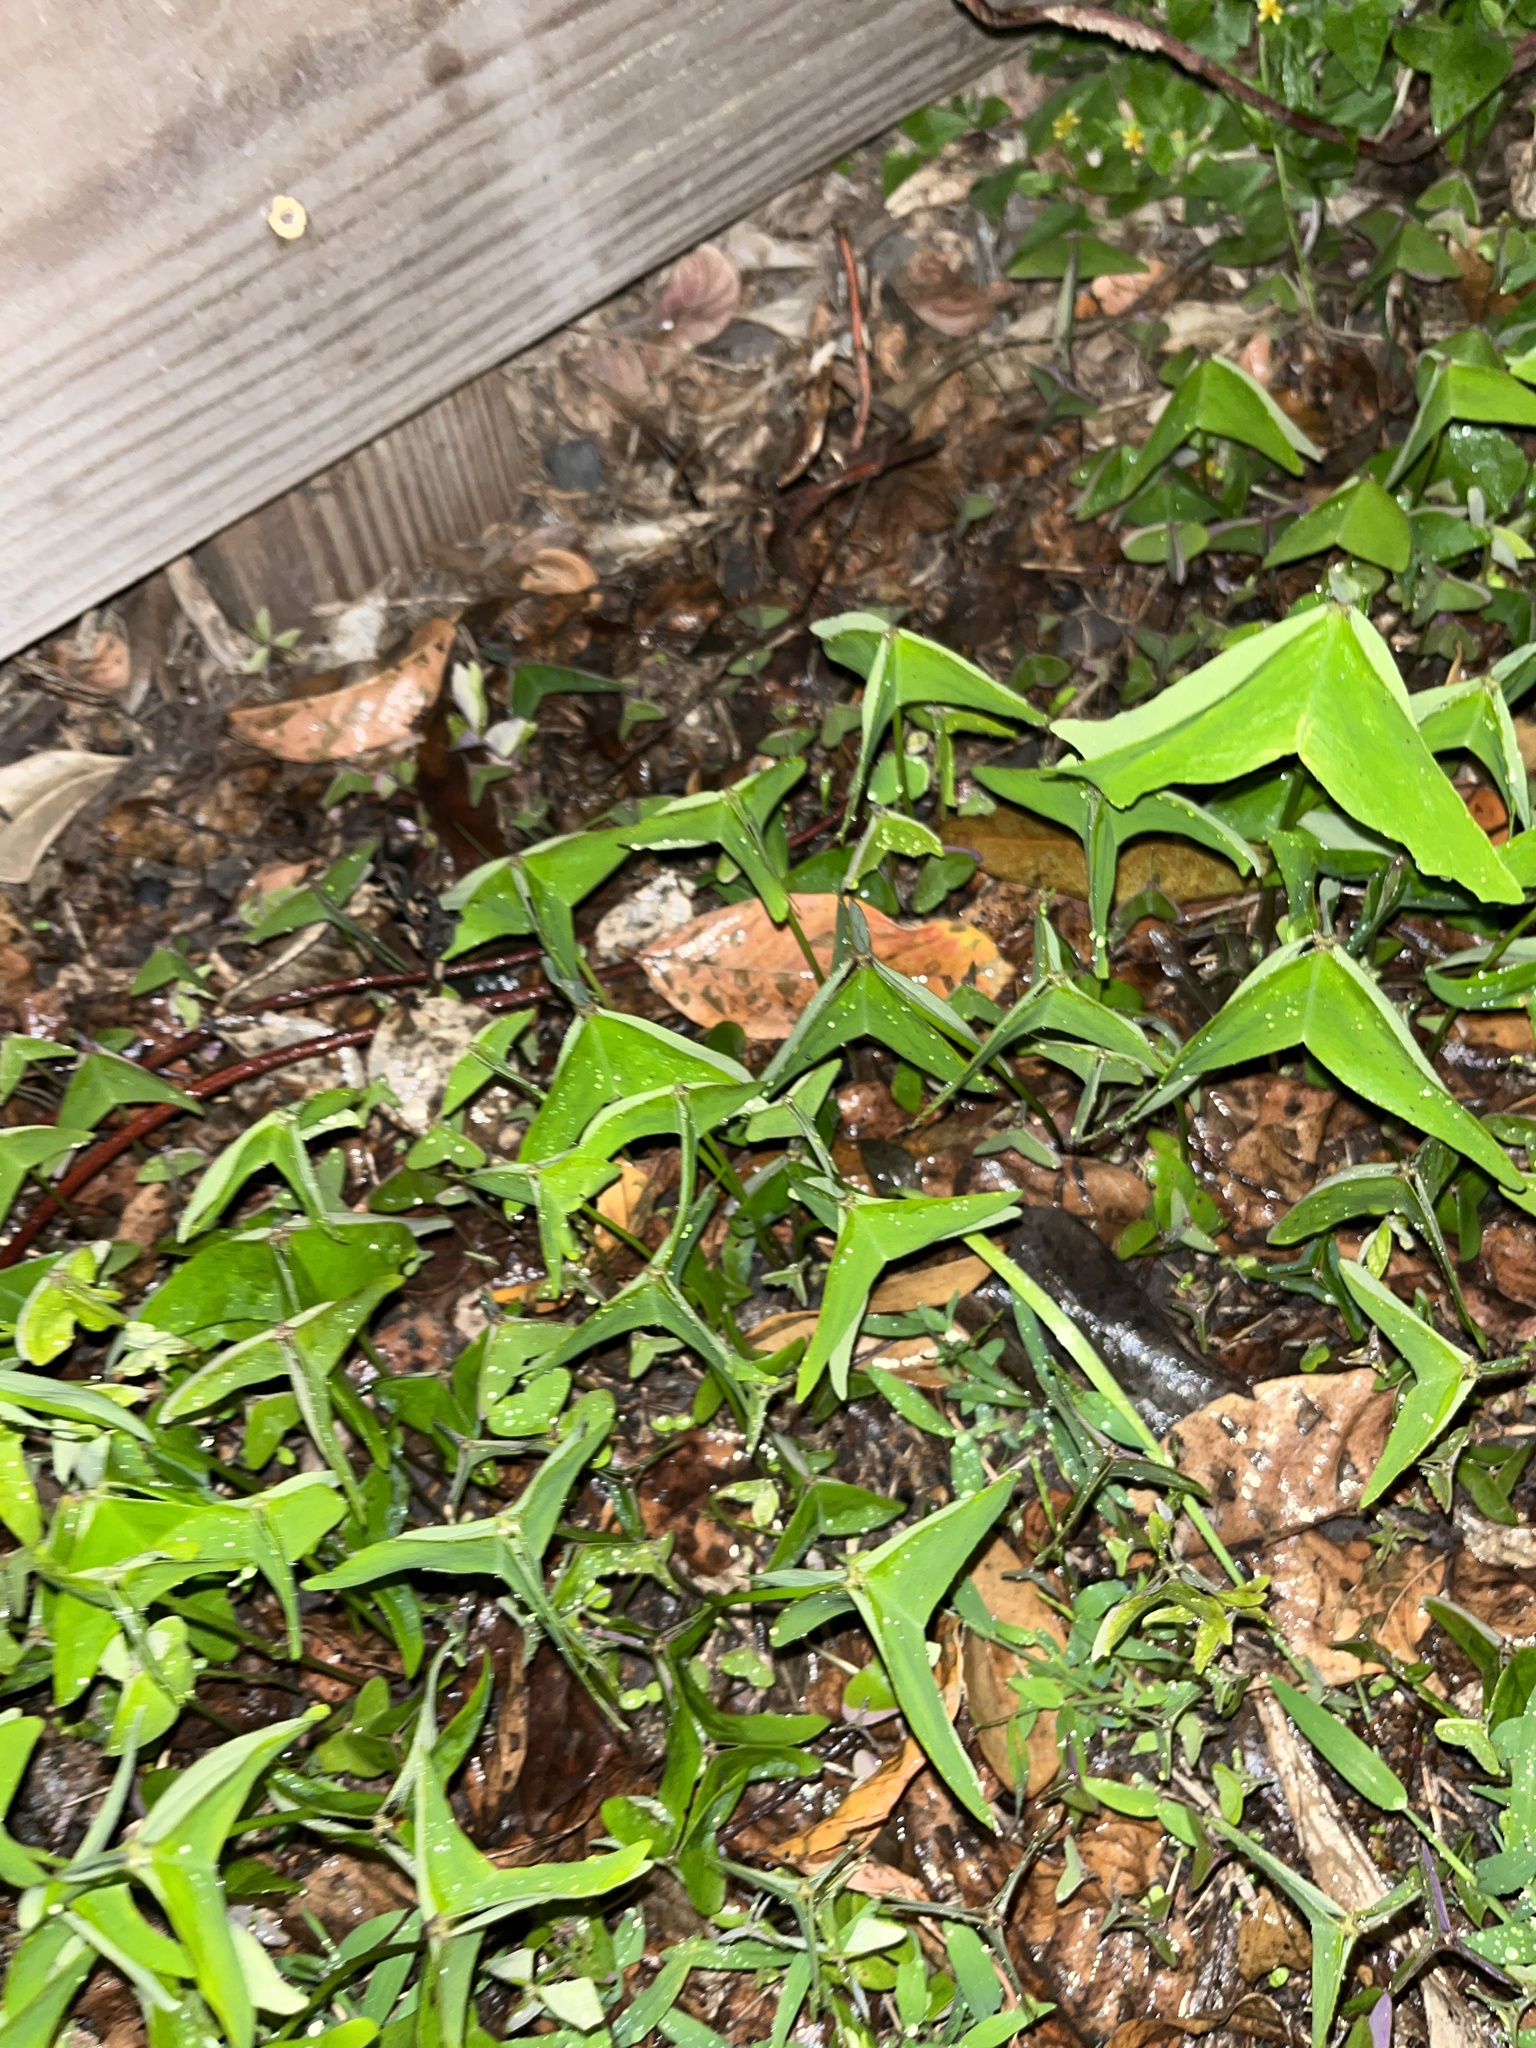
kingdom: Plantae
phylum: Tracheophyta
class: Magnoliopsida
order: Oxalidales
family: Oxalidaceae
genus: Oxalis
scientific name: Oxalis intermedia
